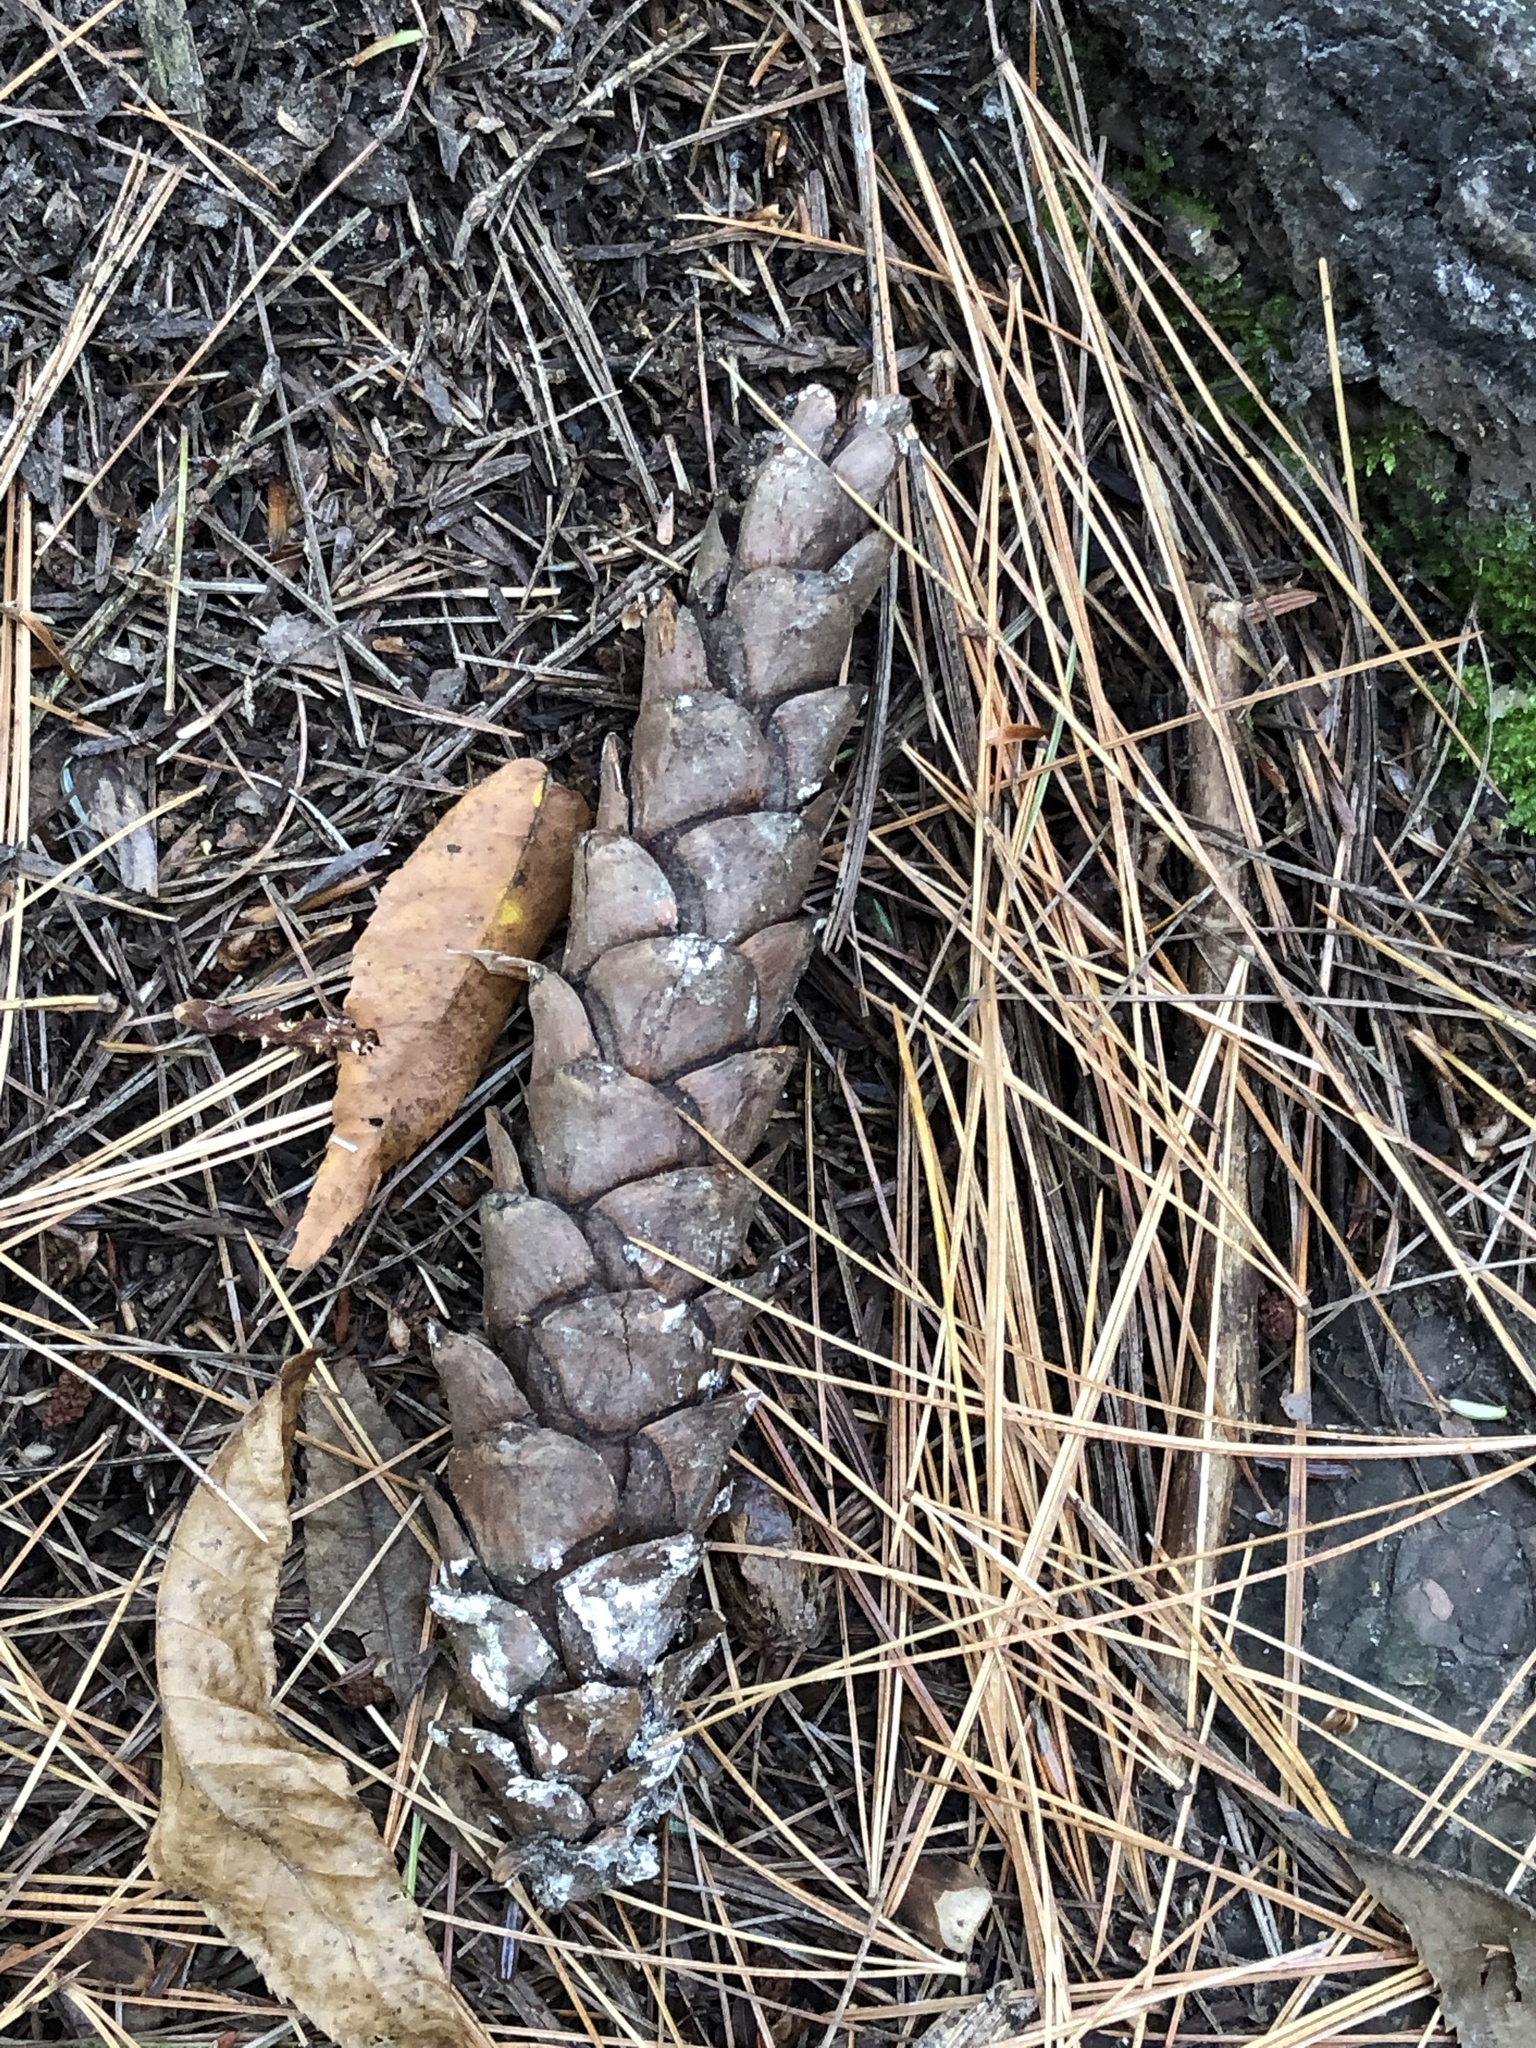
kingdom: Plantae
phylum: Tracheophyta
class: Pinopsida
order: Pinales
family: Pinaceae
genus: Pinus
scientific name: Pinus strobus
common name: Weymouth pine
